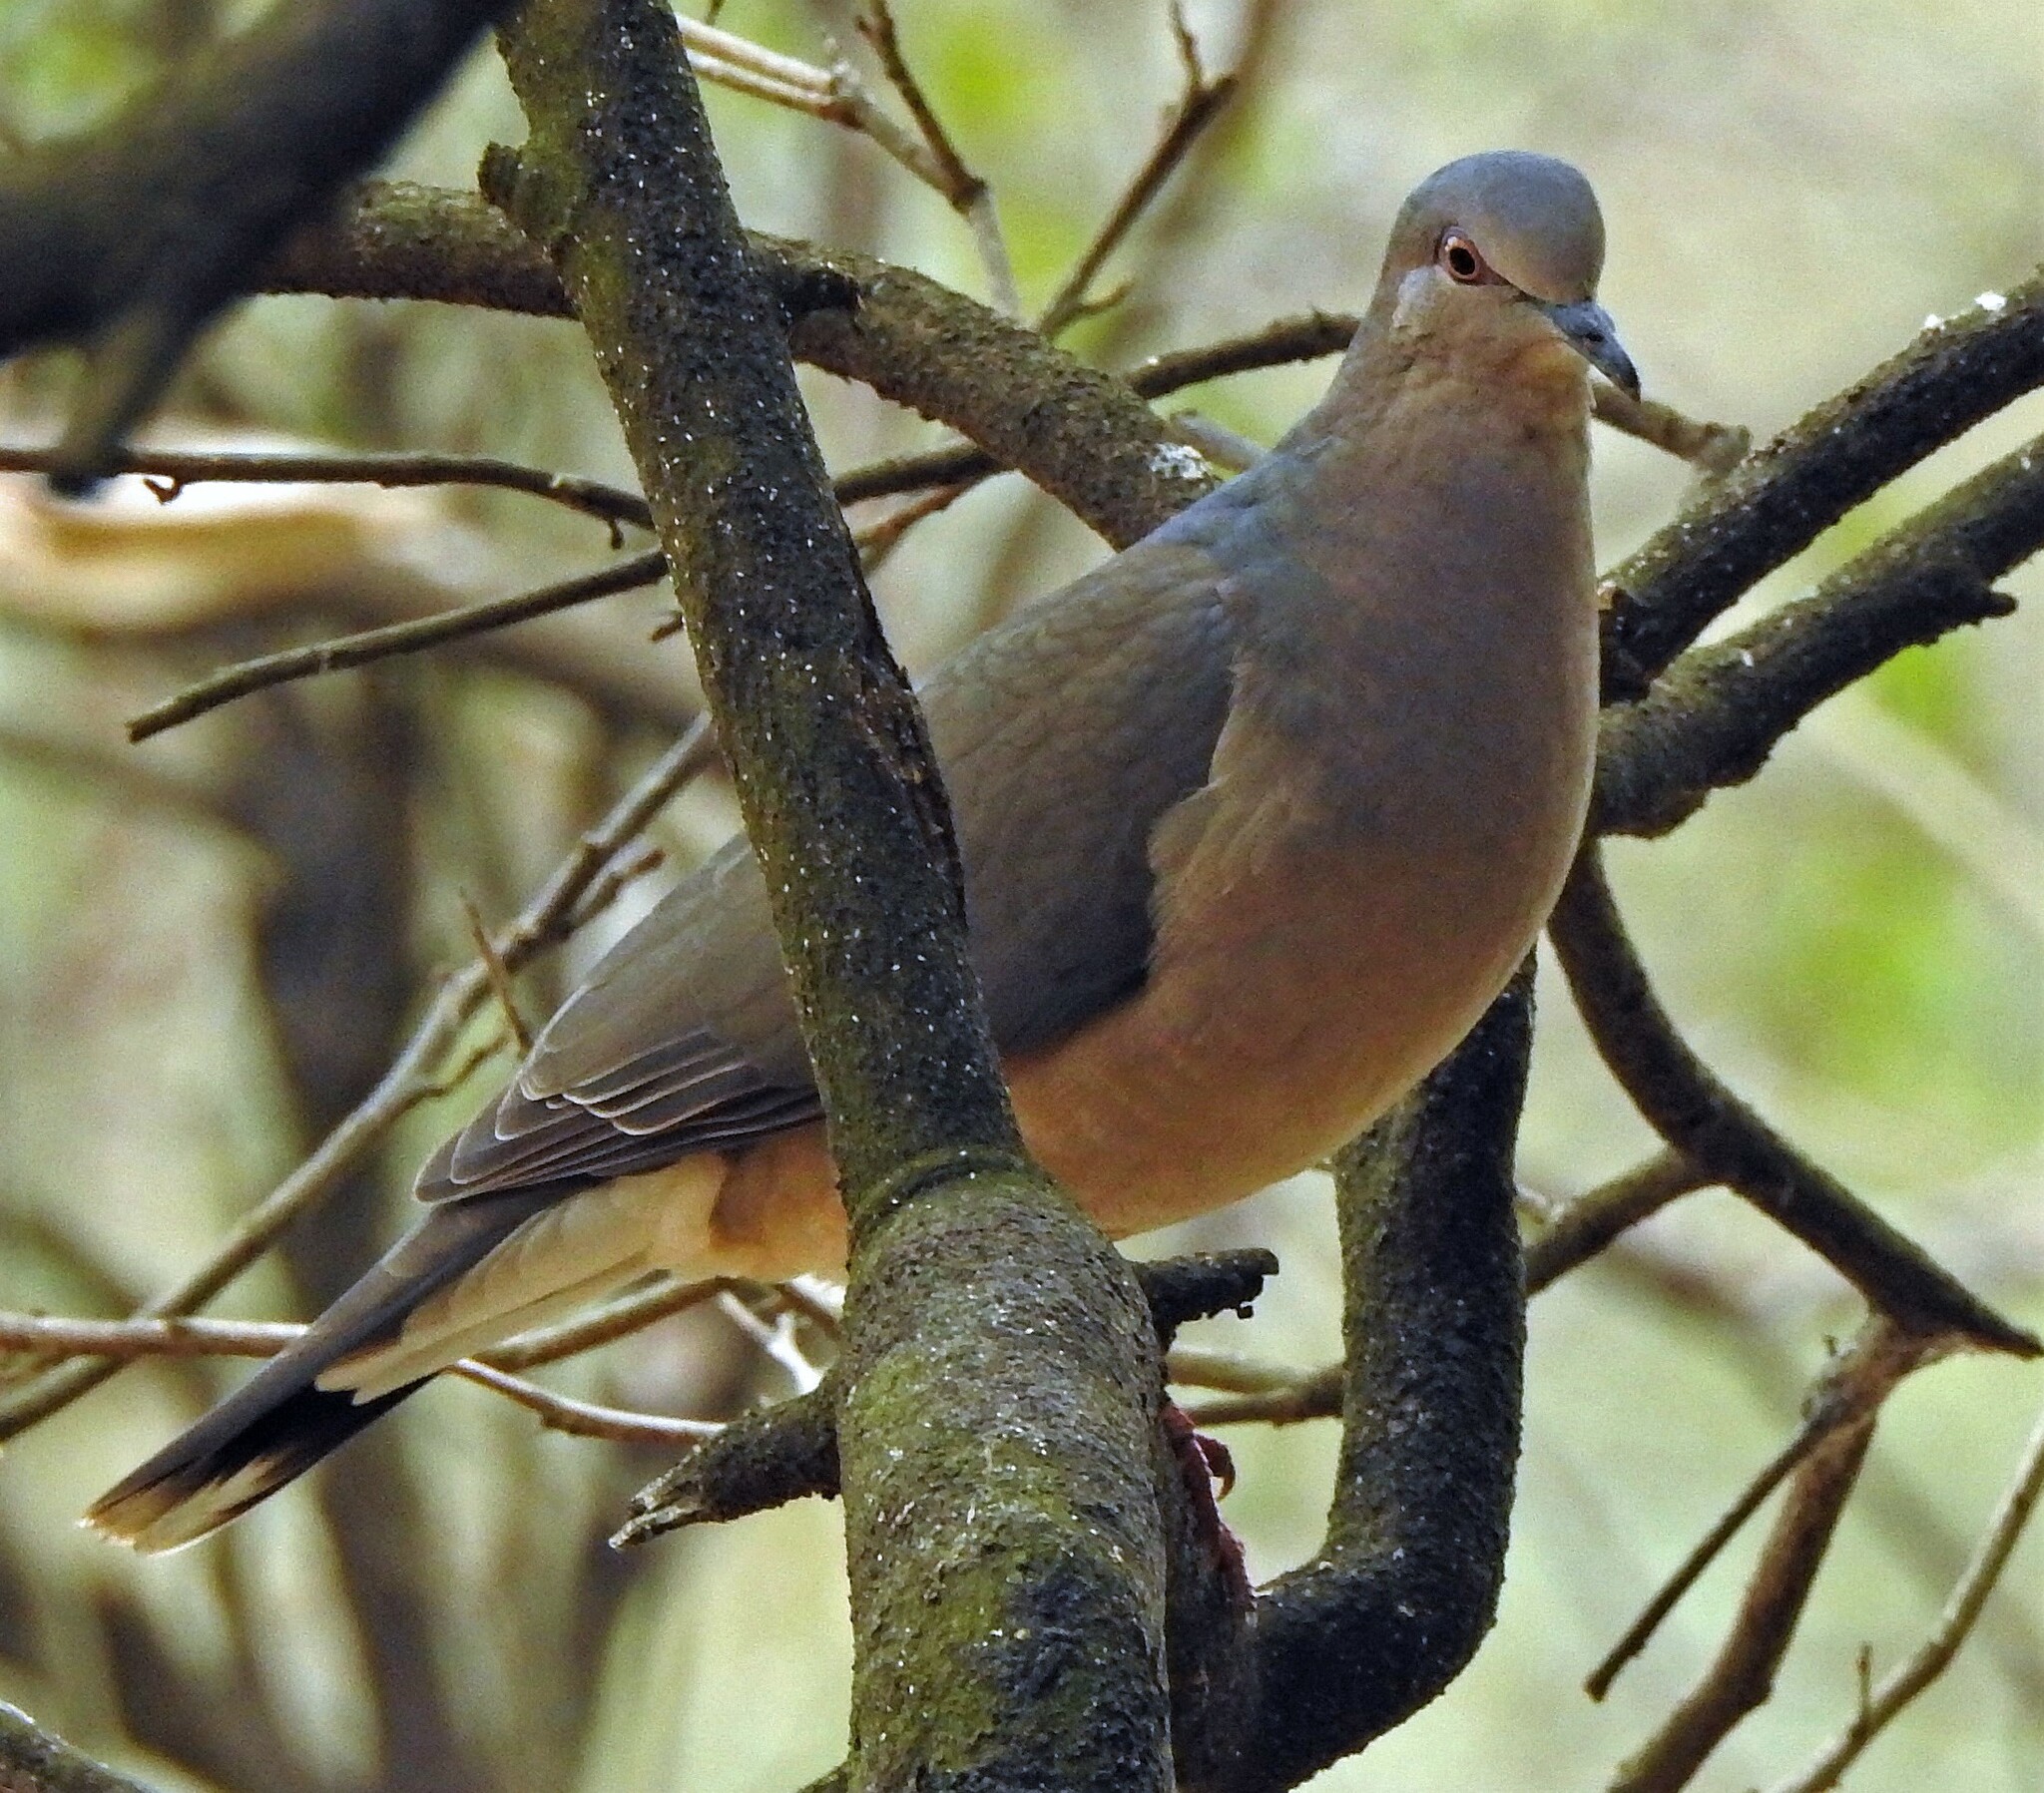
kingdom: Animalia
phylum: Chordata
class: Aves
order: Columbiformes
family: Columbidae
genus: Leptotila
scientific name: Leptotila verreauxi
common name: White-tipped dove
